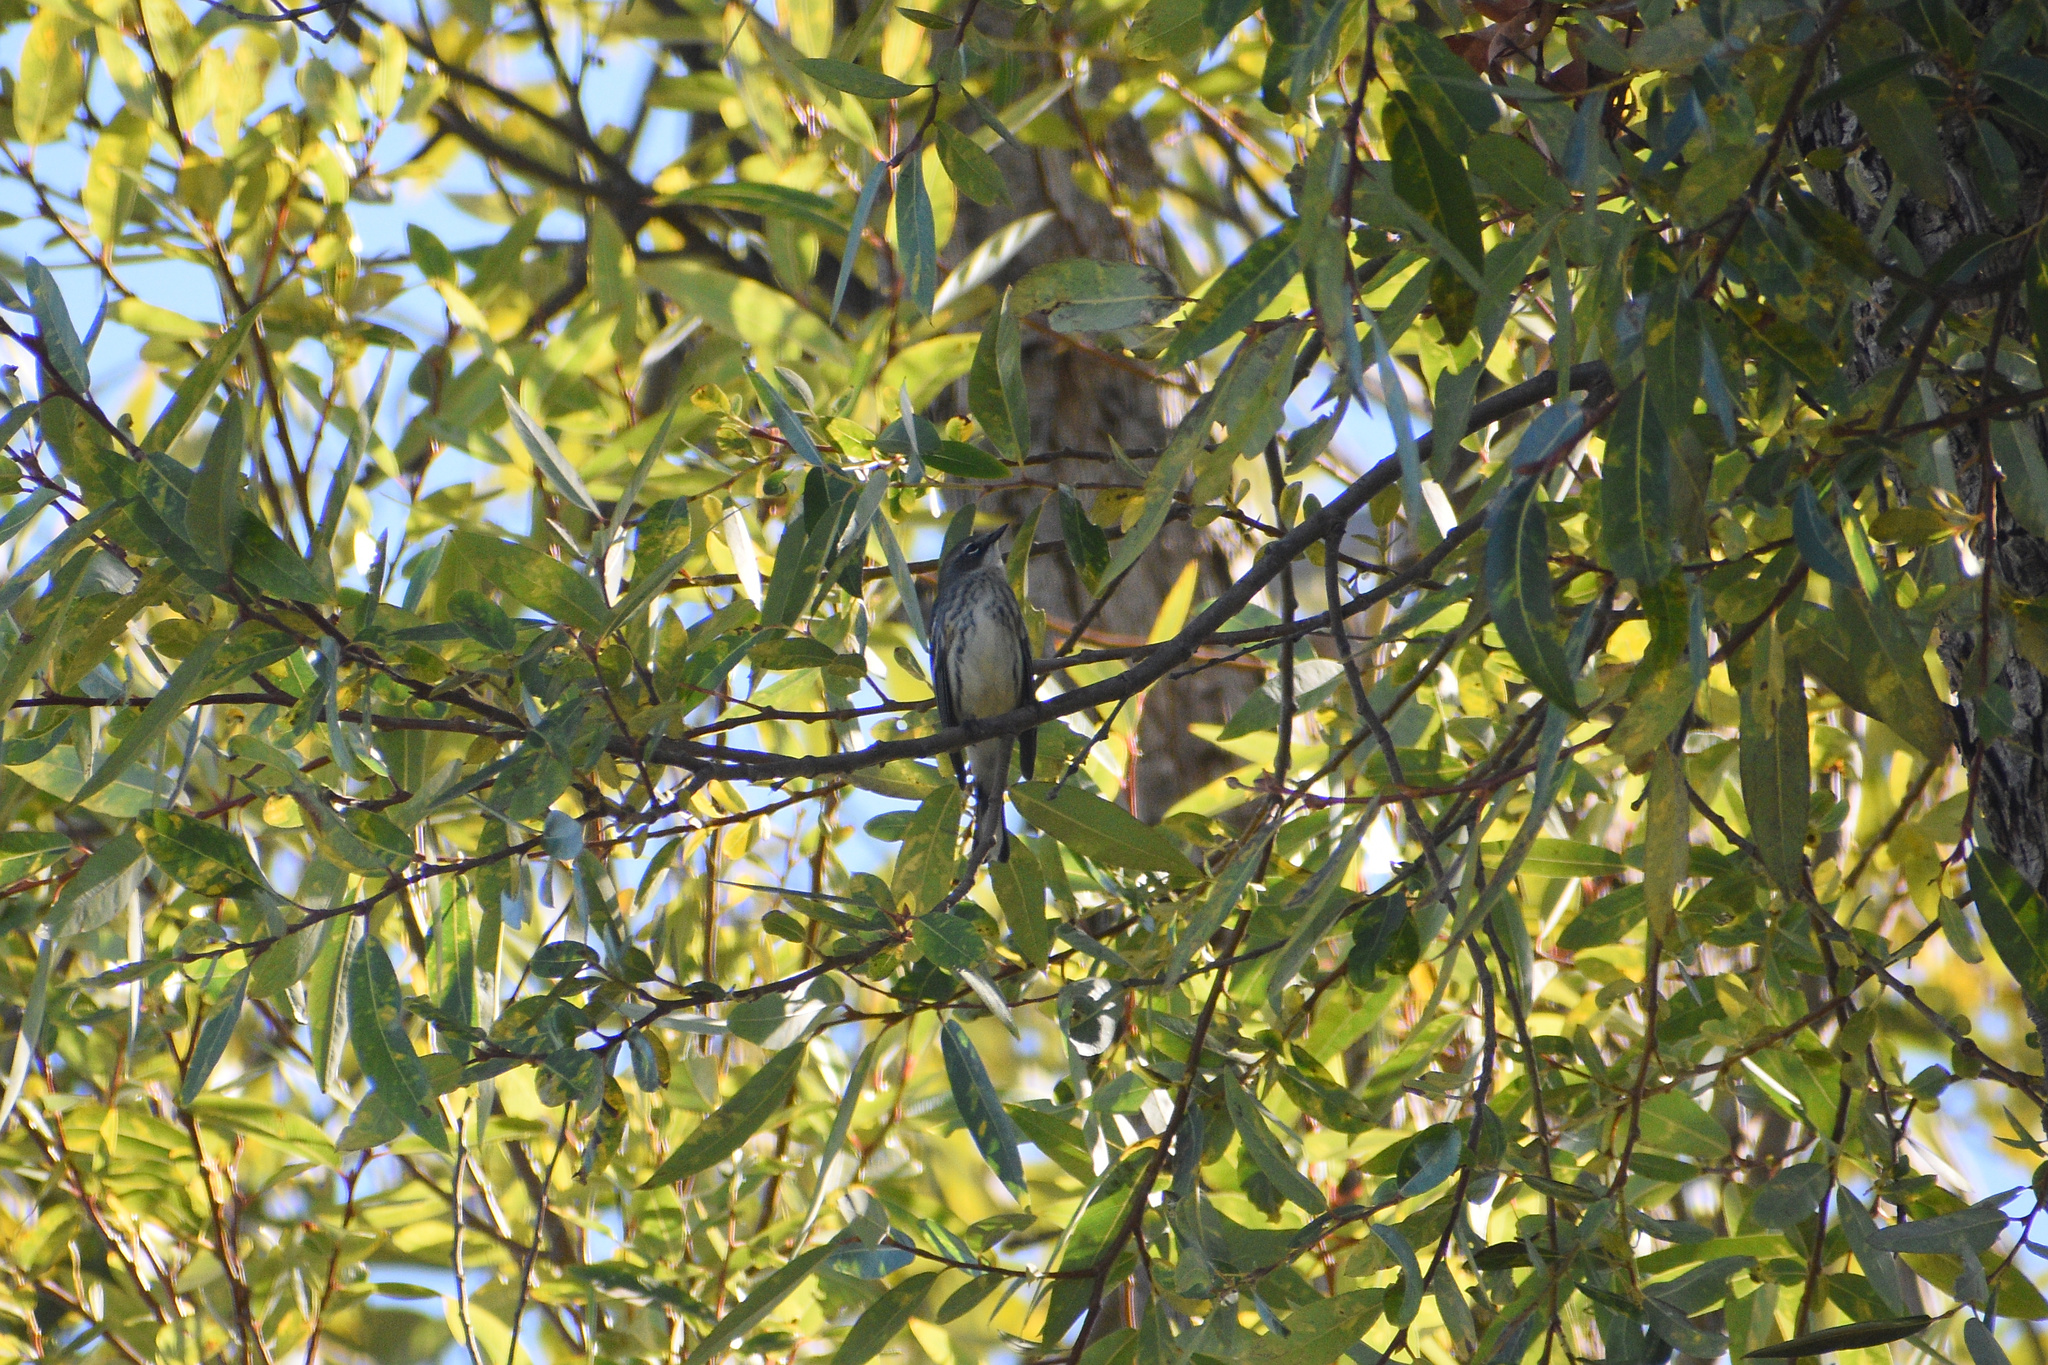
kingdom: Animalia
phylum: Chordata
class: Aves
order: Passeriformes
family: Parulidae
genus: Setophaga
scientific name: Setophaga coronata
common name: Myrtle warbler
